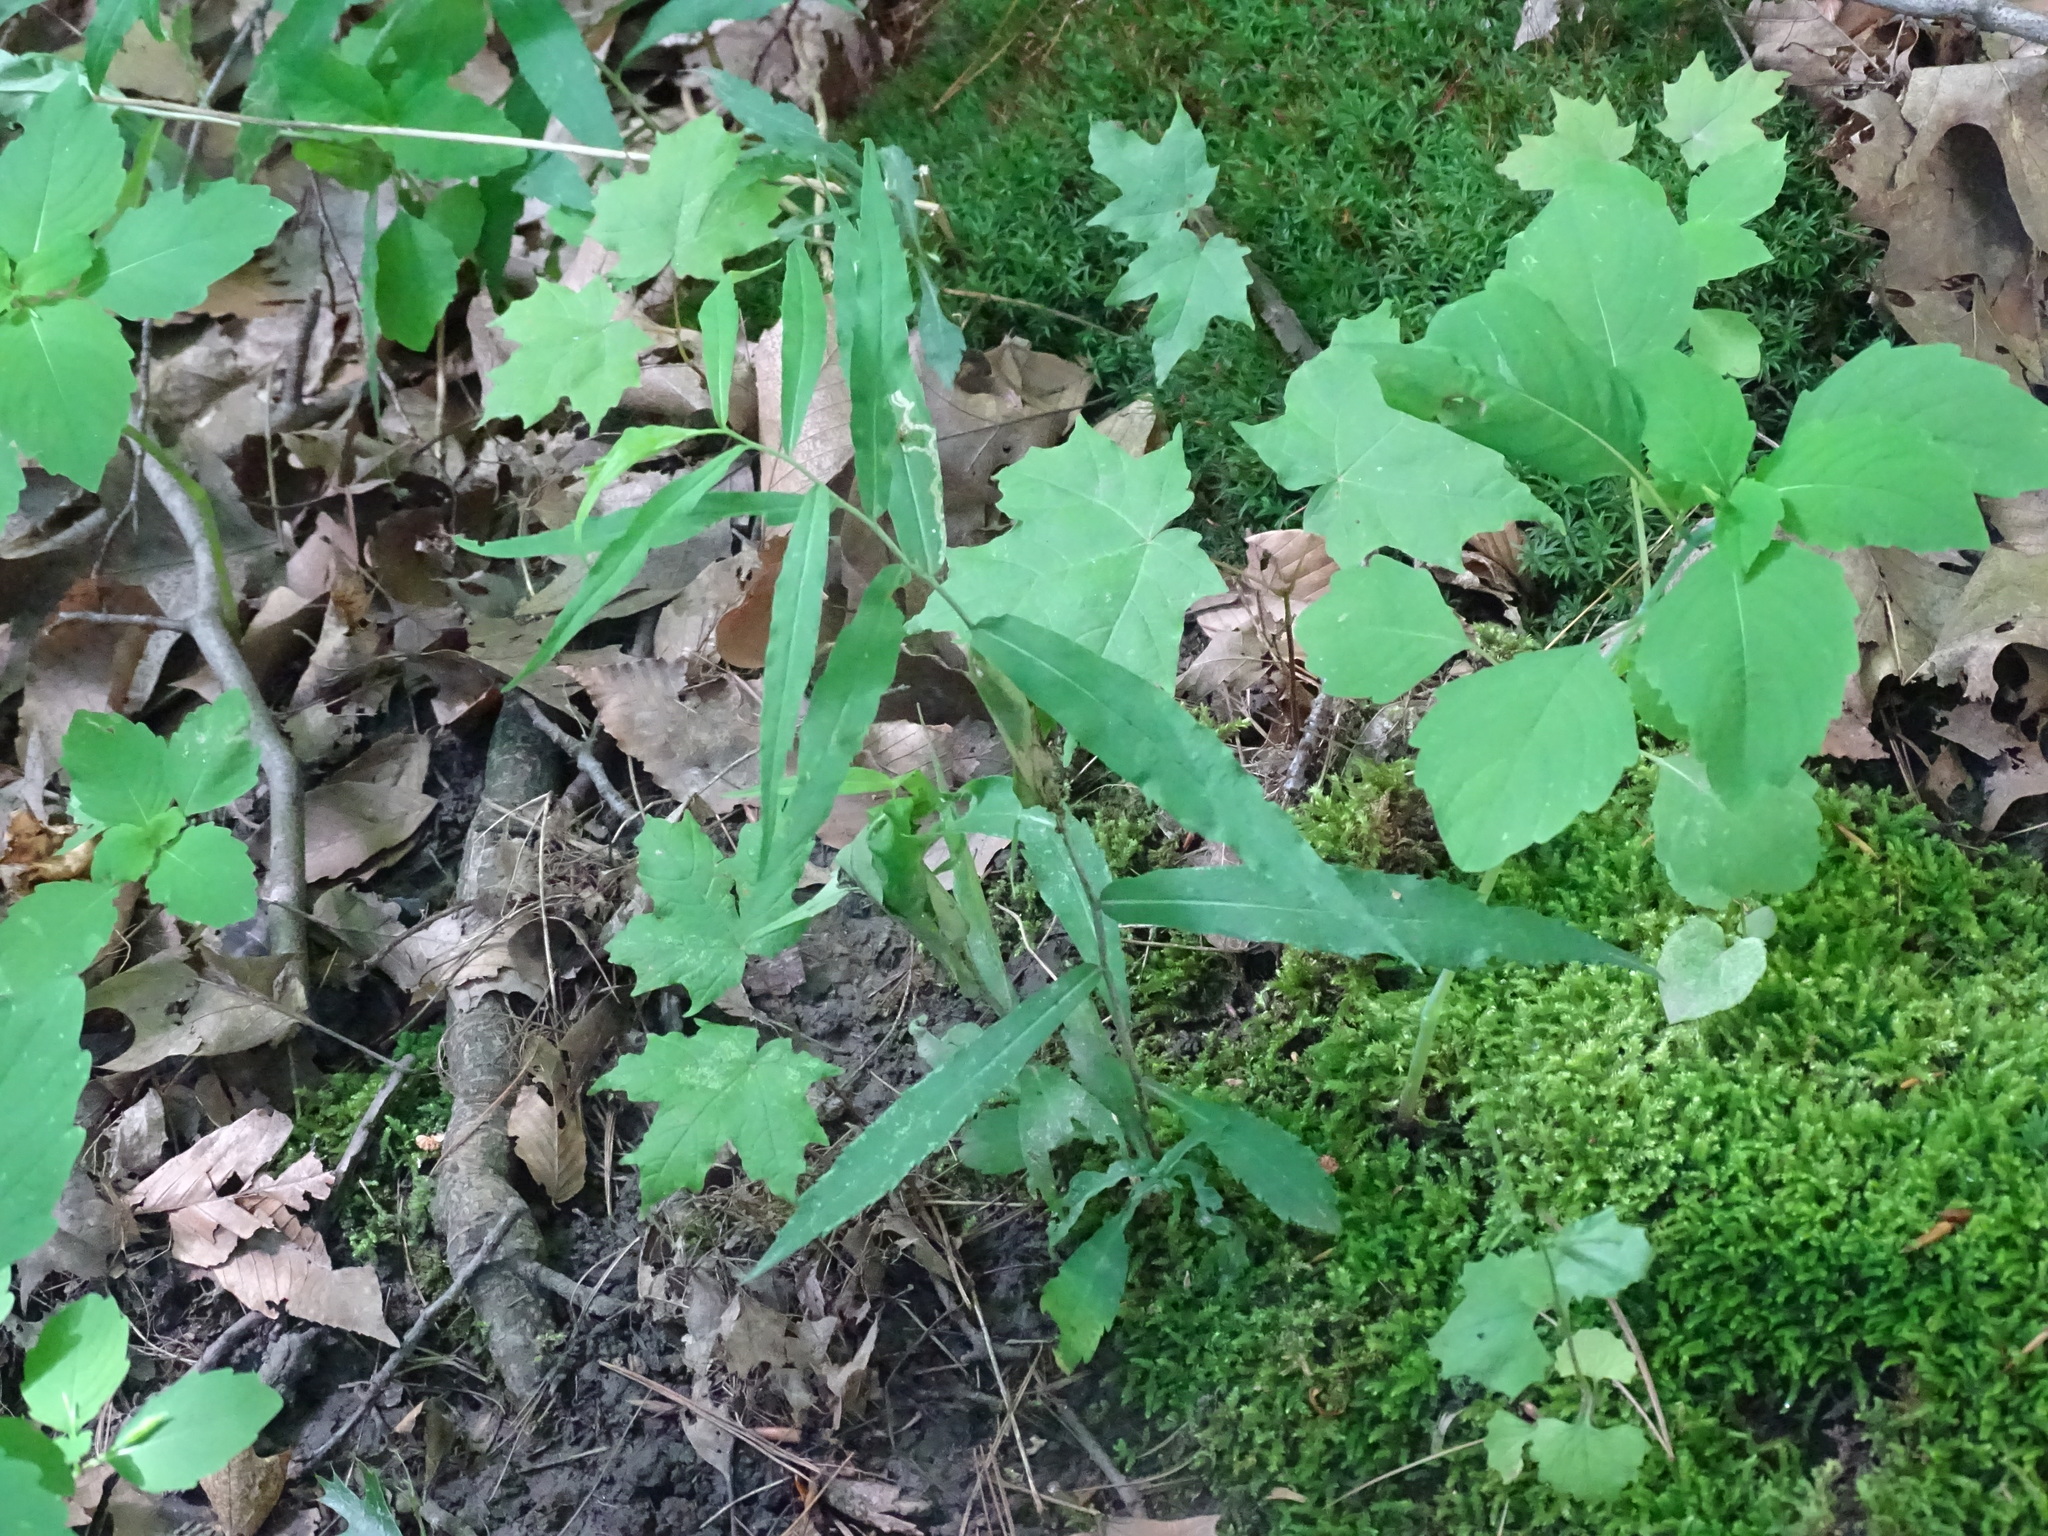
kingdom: Plantae
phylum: Tracheophyta
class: Magnoliopsida
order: Asterales
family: Asteraceae
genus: Solidago
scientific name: Solidago caesia
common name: Woodland goldenrod
